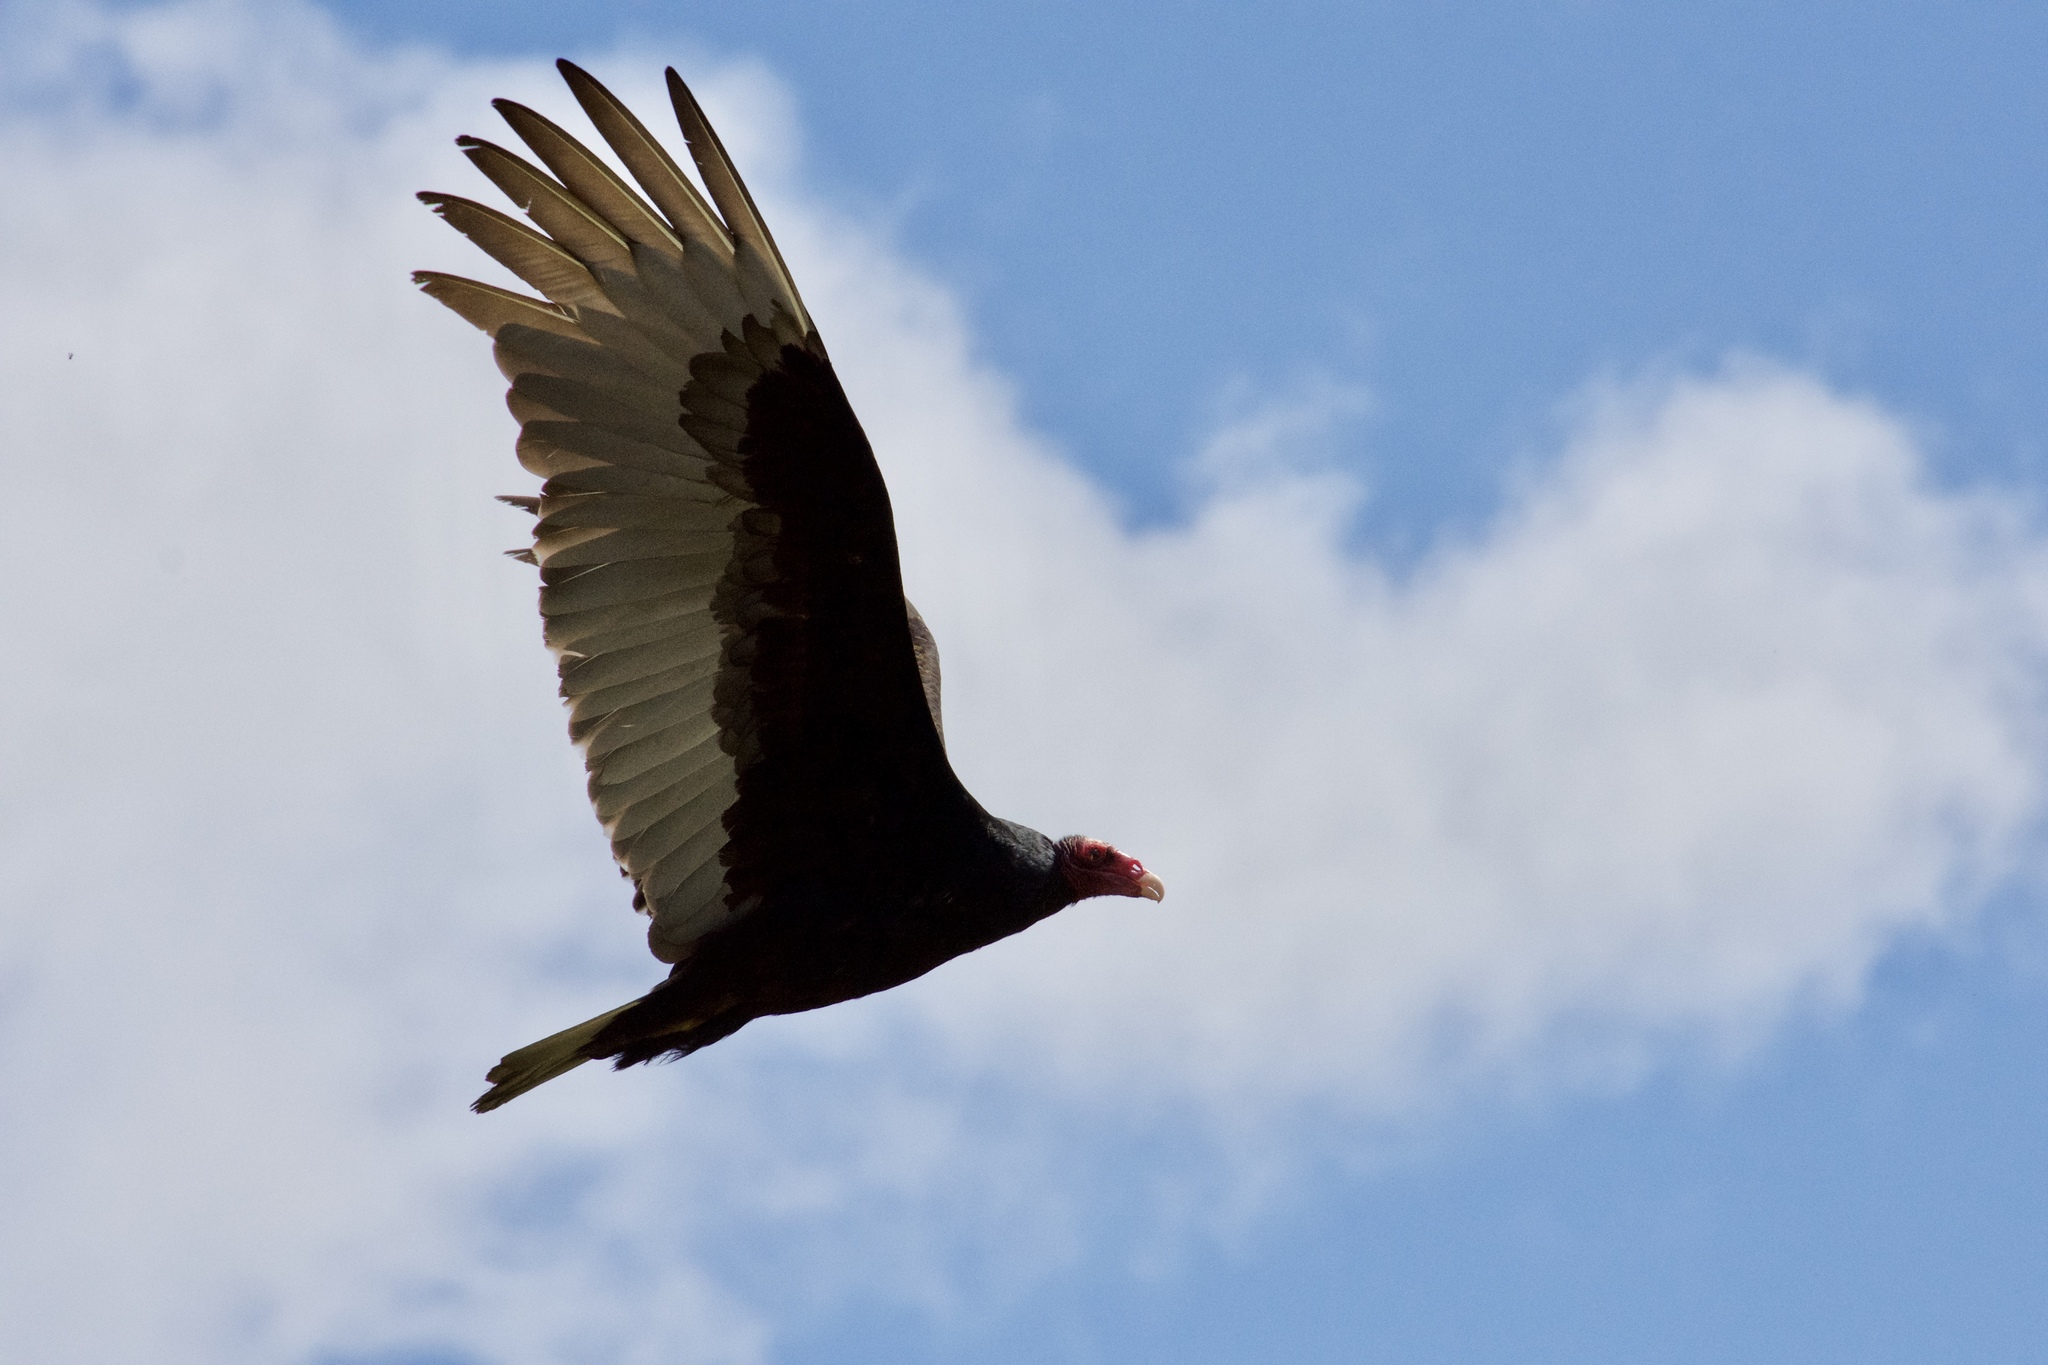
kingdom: Animalia
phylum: Chordata
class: Aves
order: Accipitriformes
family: Cathartidae
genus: Cathartes
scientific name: Cathartes aura
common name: Turkey vulture
